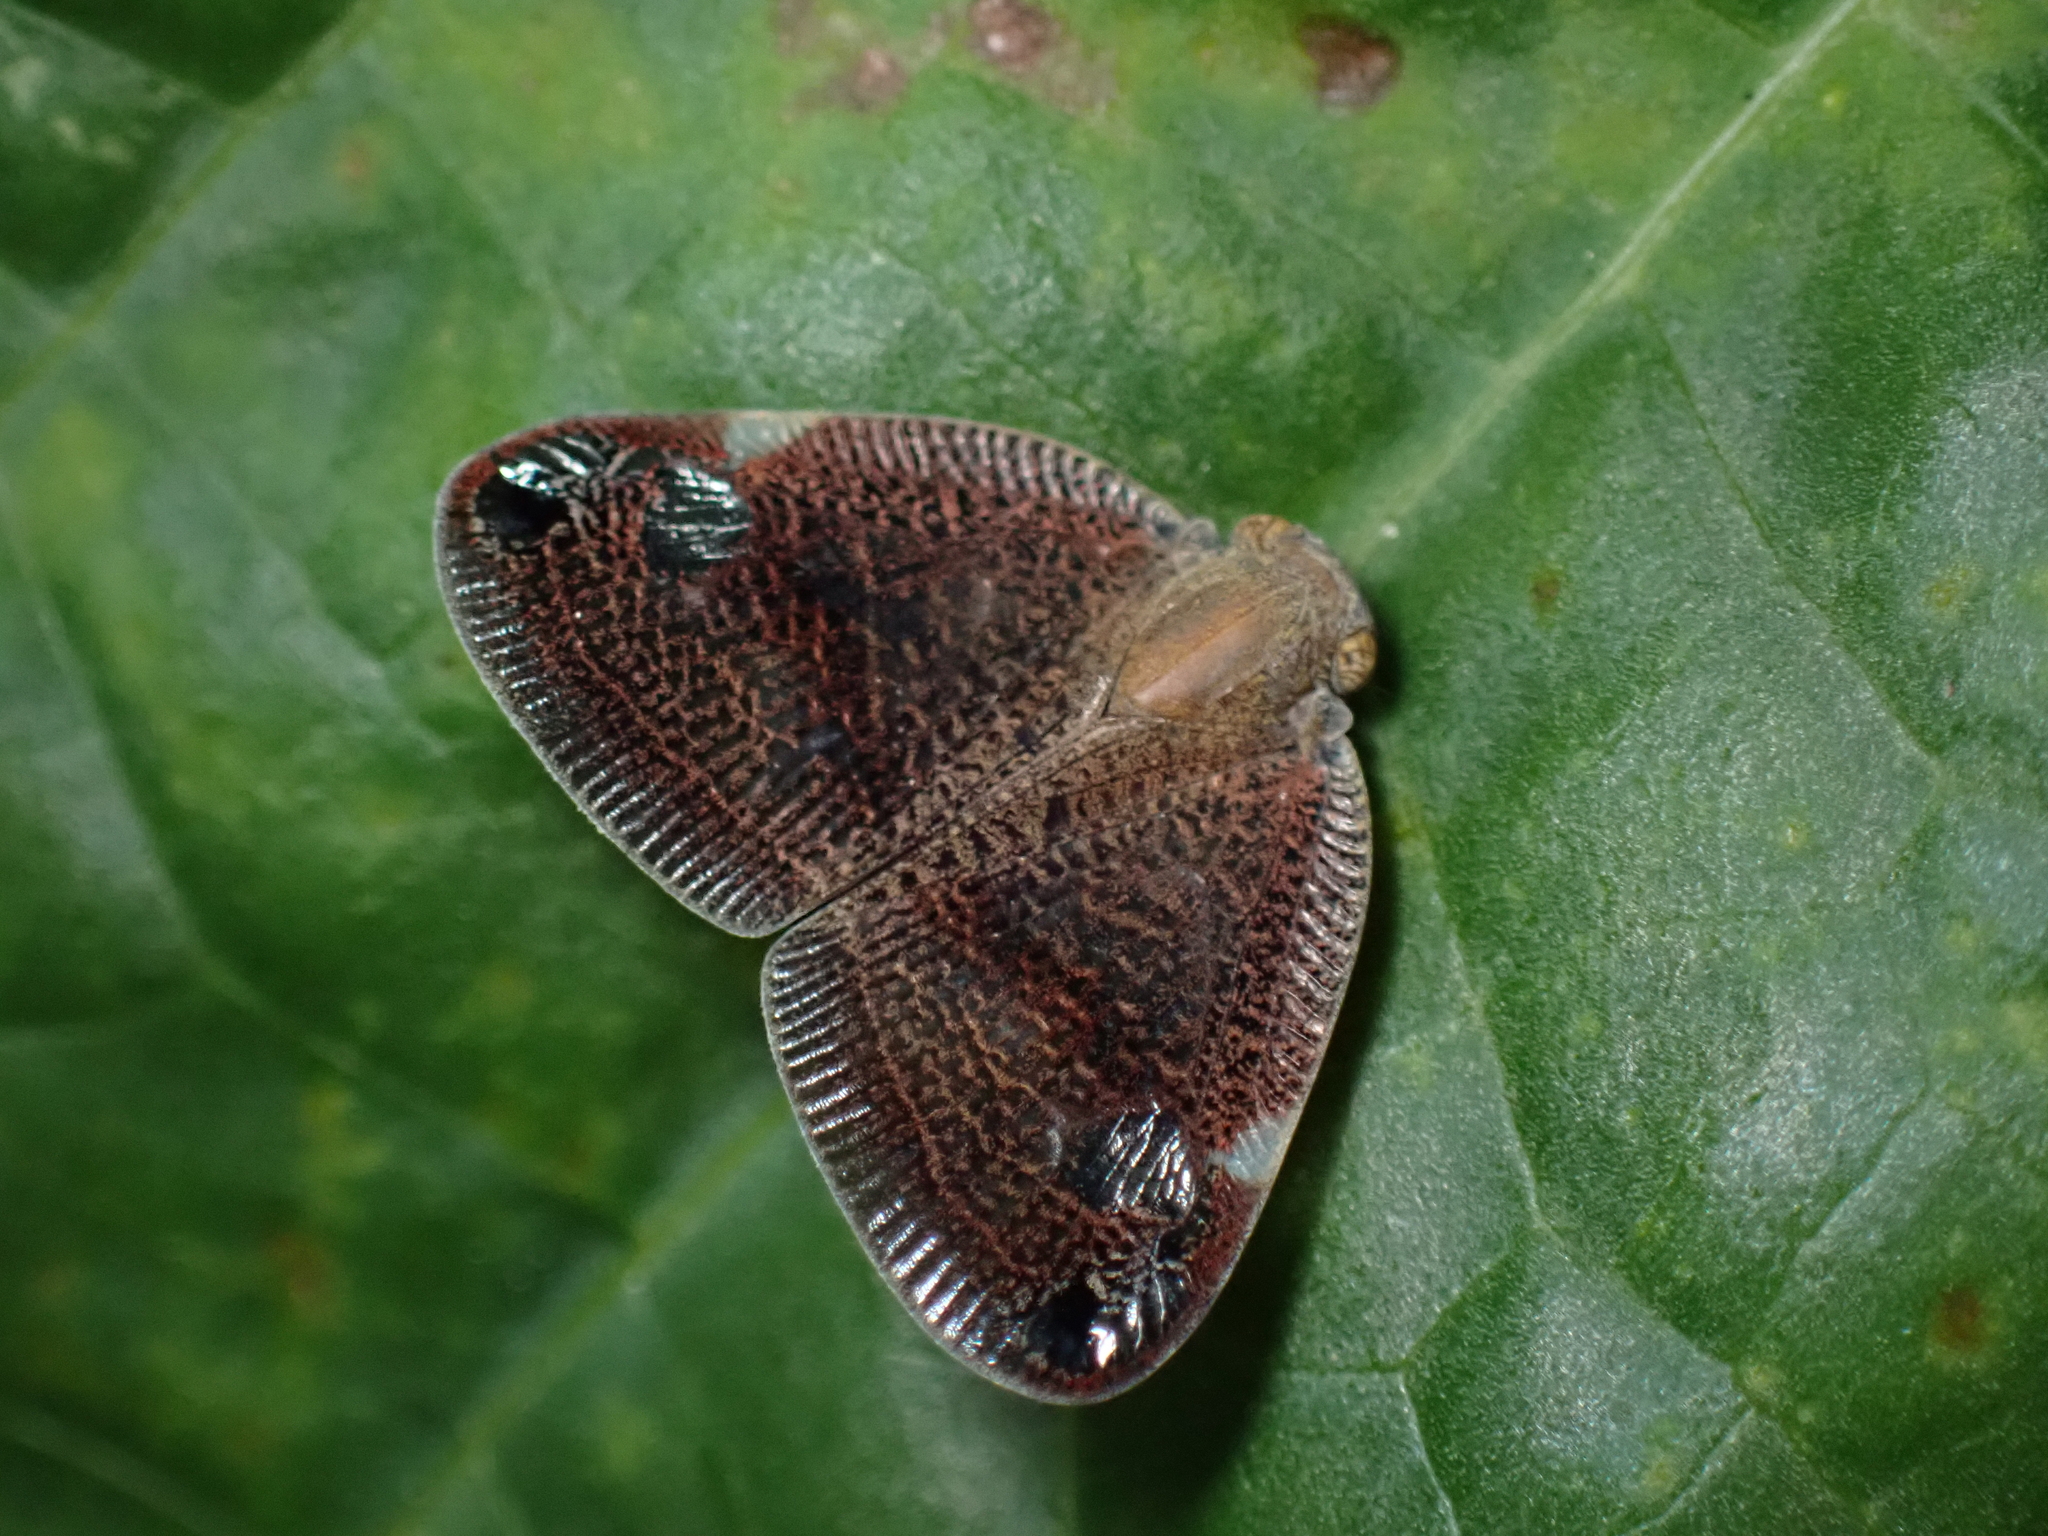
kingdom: Animalia
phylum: Arthropoda
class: Insecta
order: Hemiptera
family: Ricaniidae
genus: Parapiromis
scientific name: Parapiromis translucida
